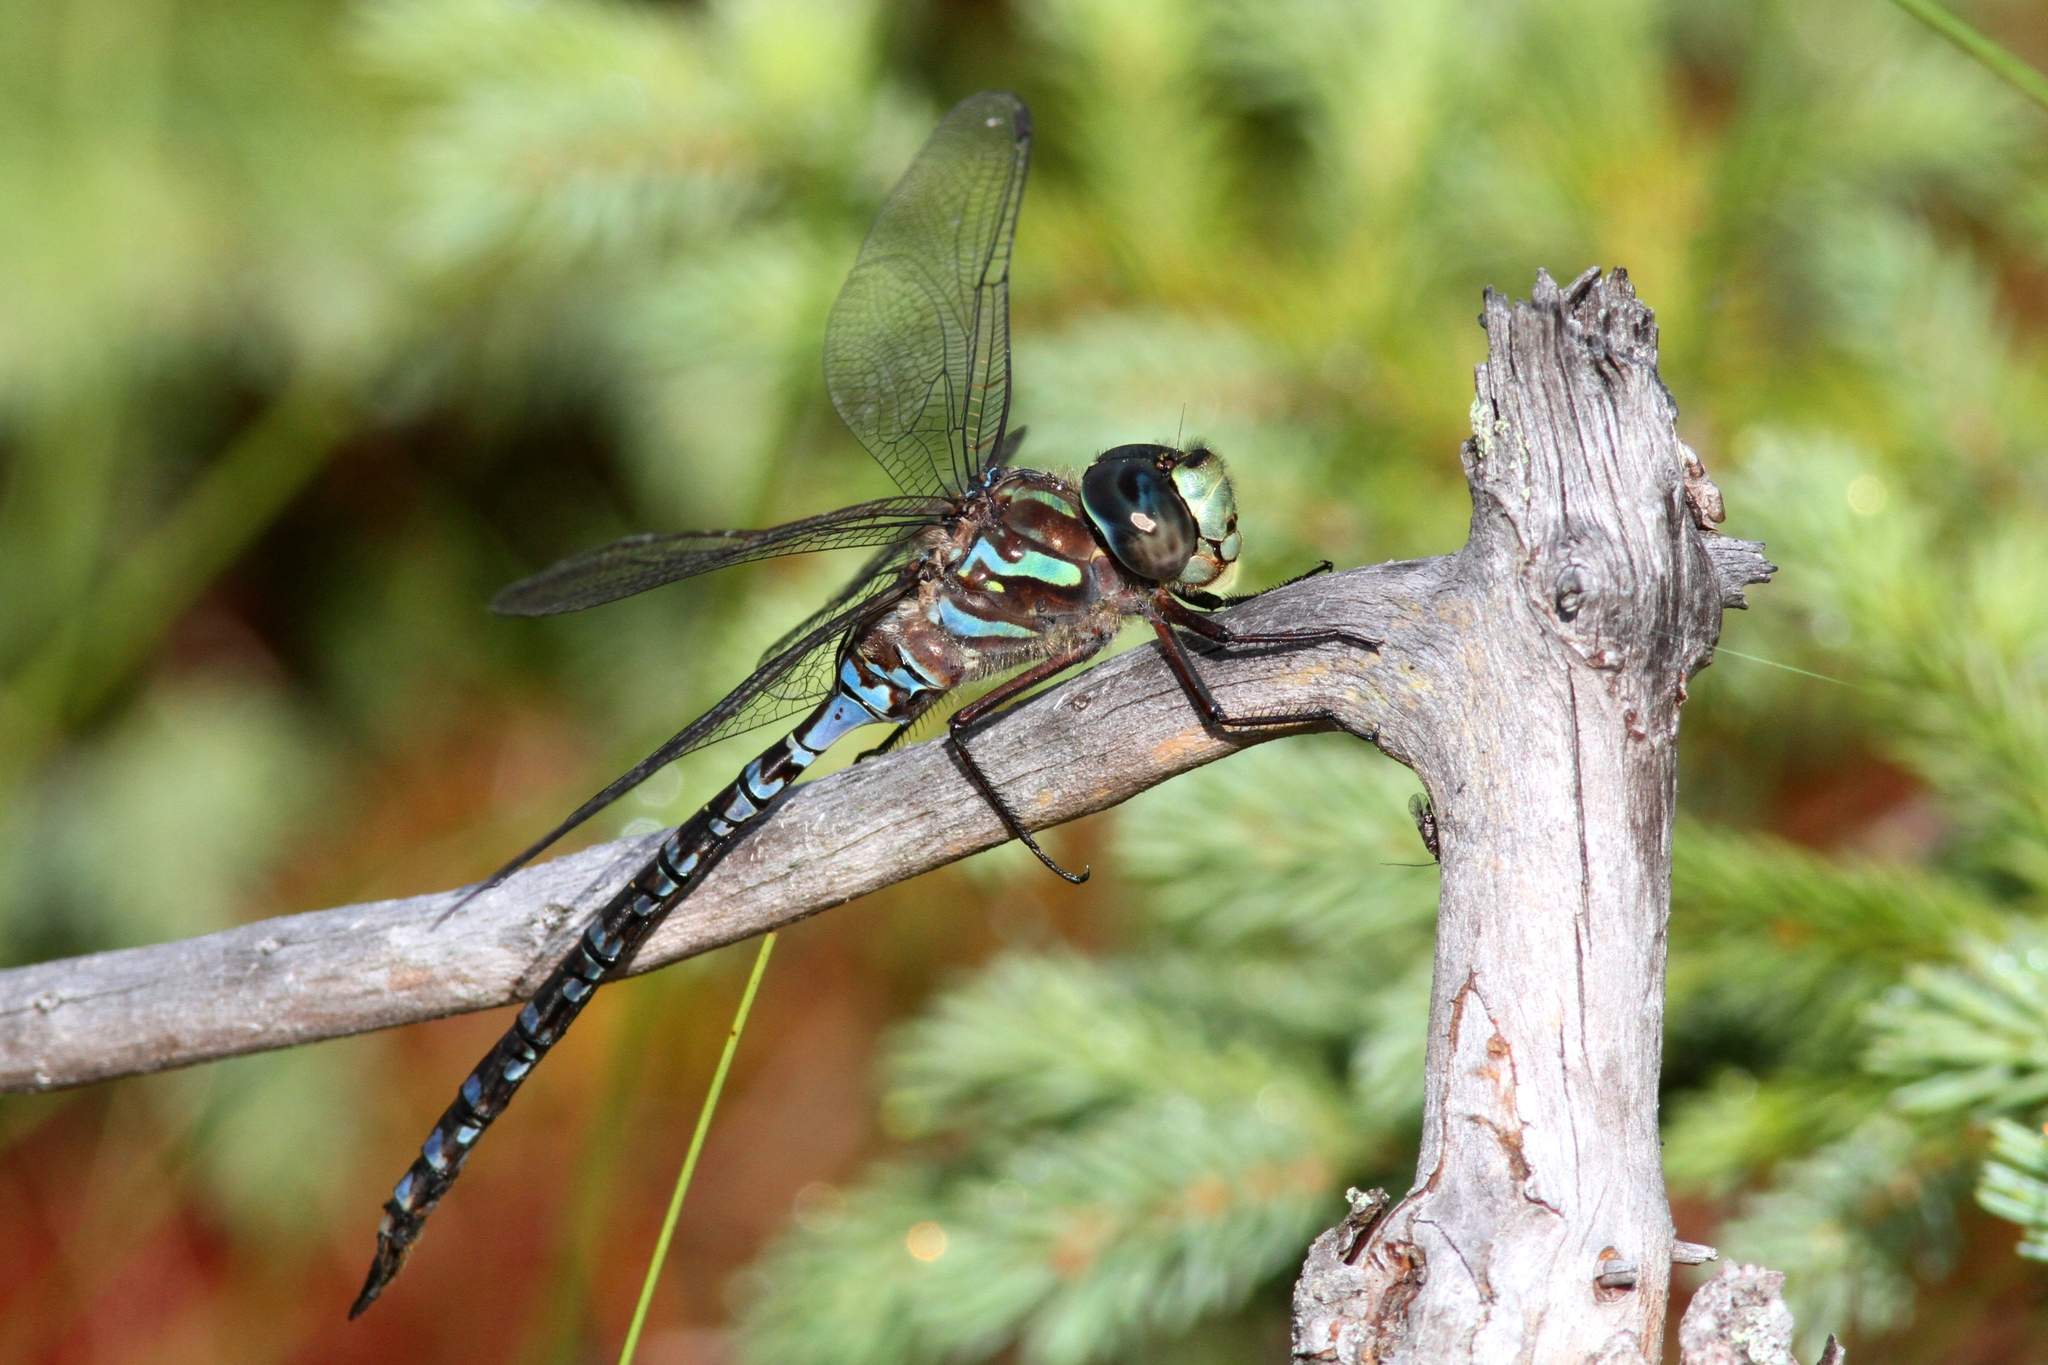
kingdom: Animalia
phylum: Arthropoda
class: Insecta
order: Odonata
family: Aeshnidae
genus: Aeshna
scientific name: Aeshna canadensis
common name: Canada darner
